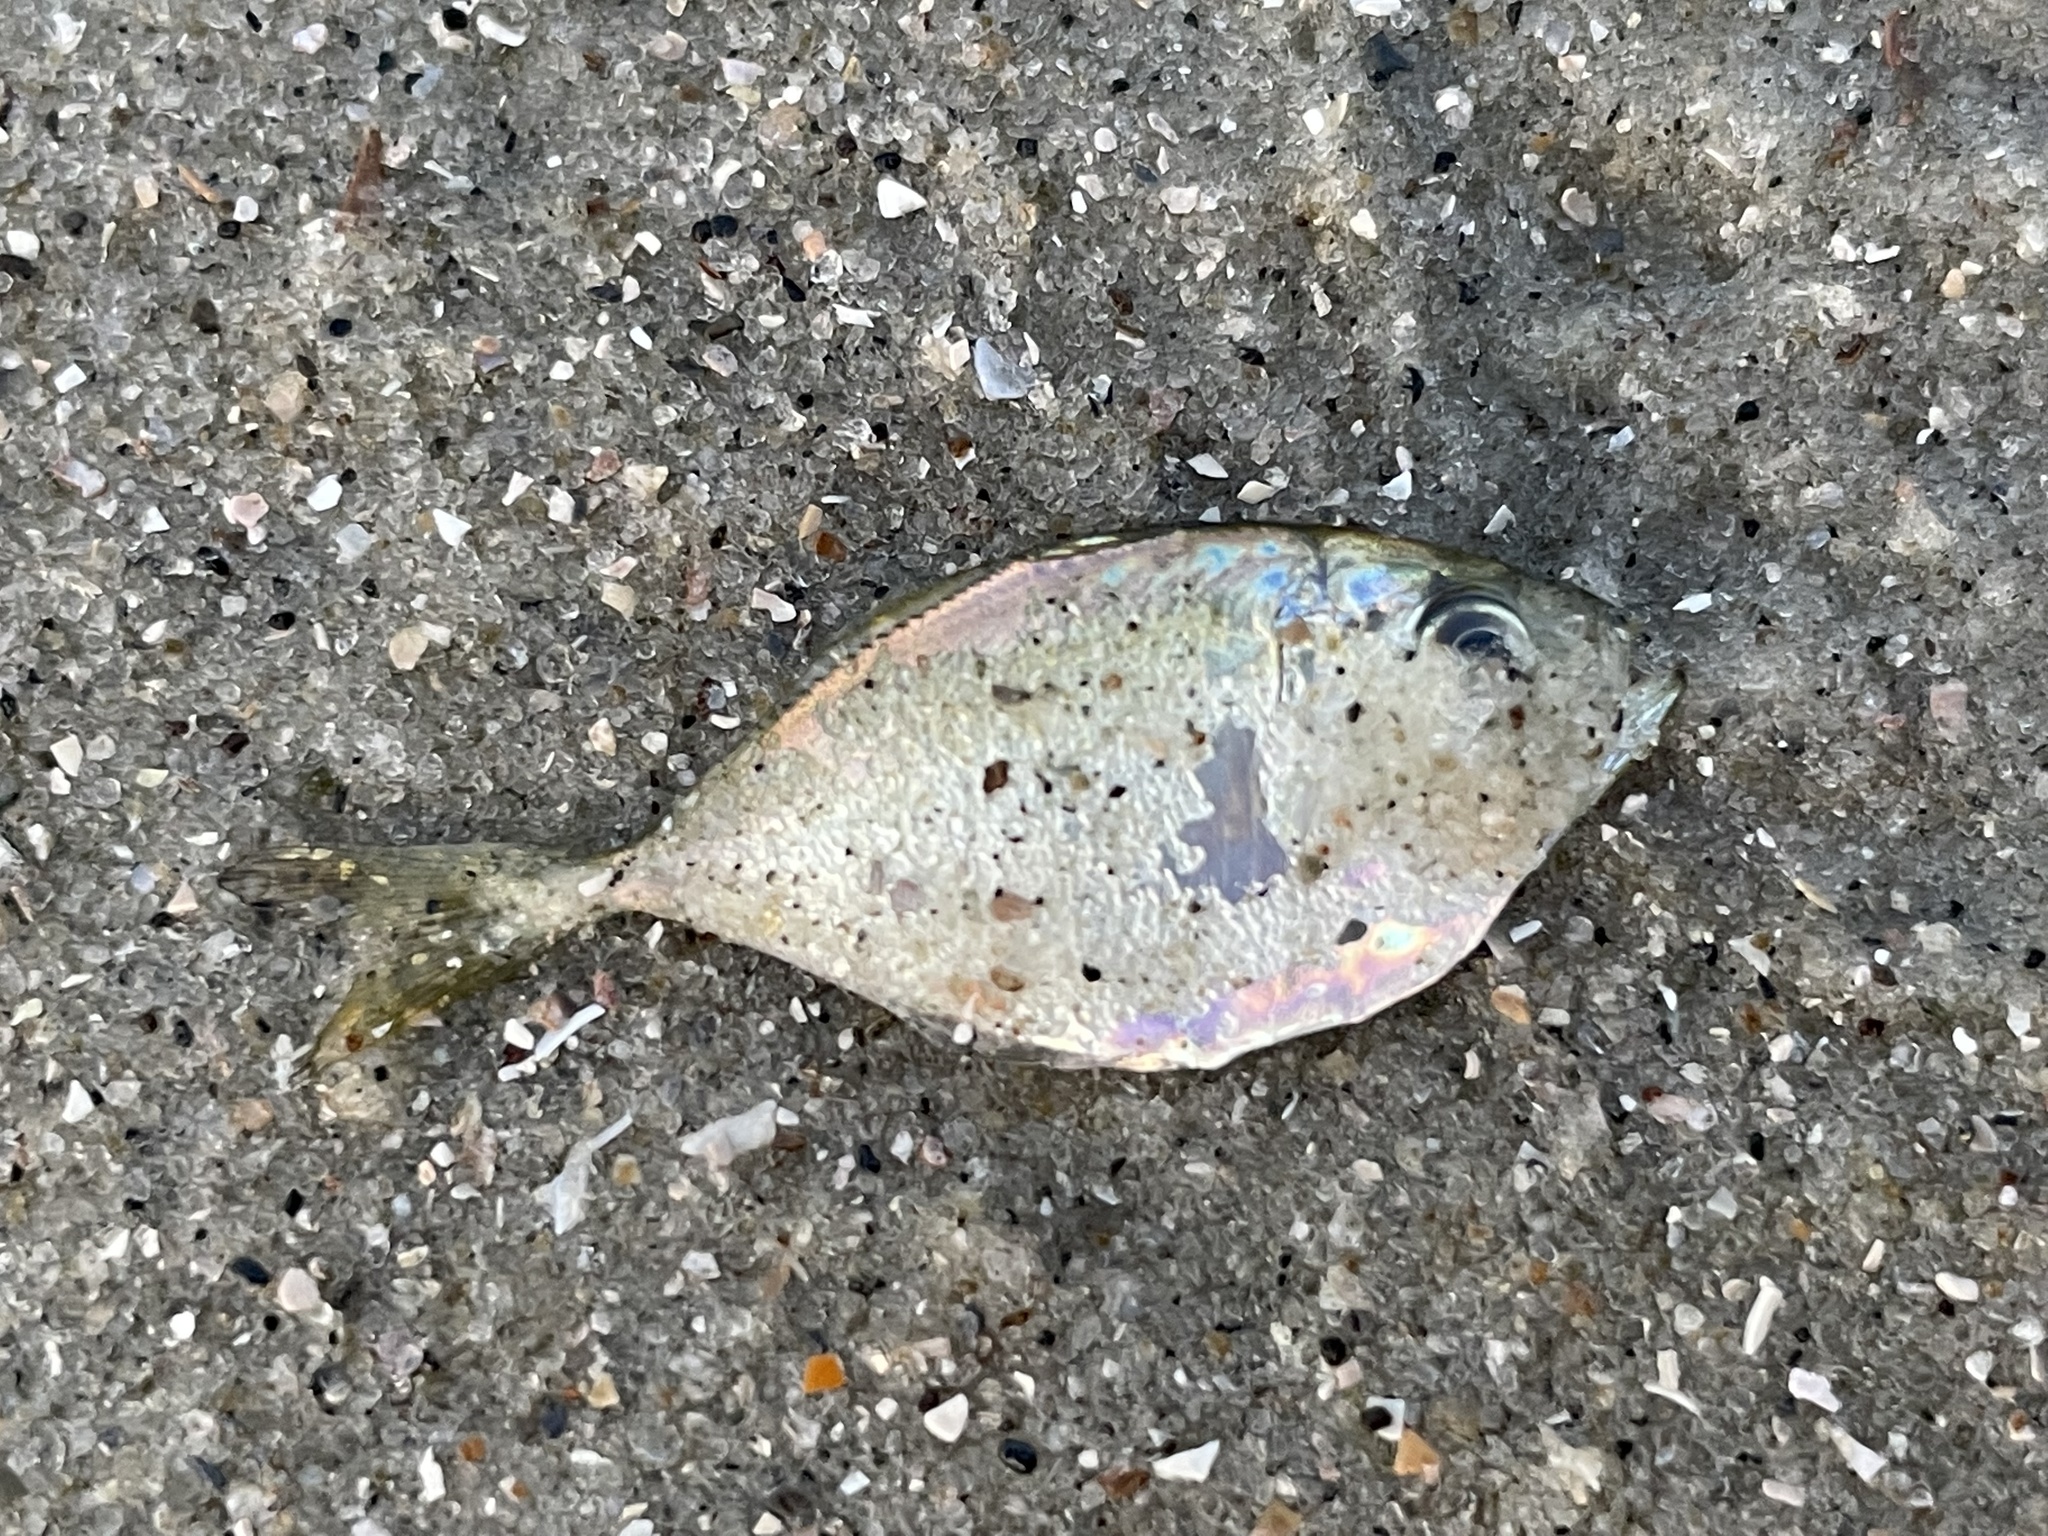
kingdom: Animalia
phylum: Chordata
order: Perciformes
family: Carangidae
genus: Chloroscombrus
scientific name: Chloroscombrus chrysurus
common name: Bumper
